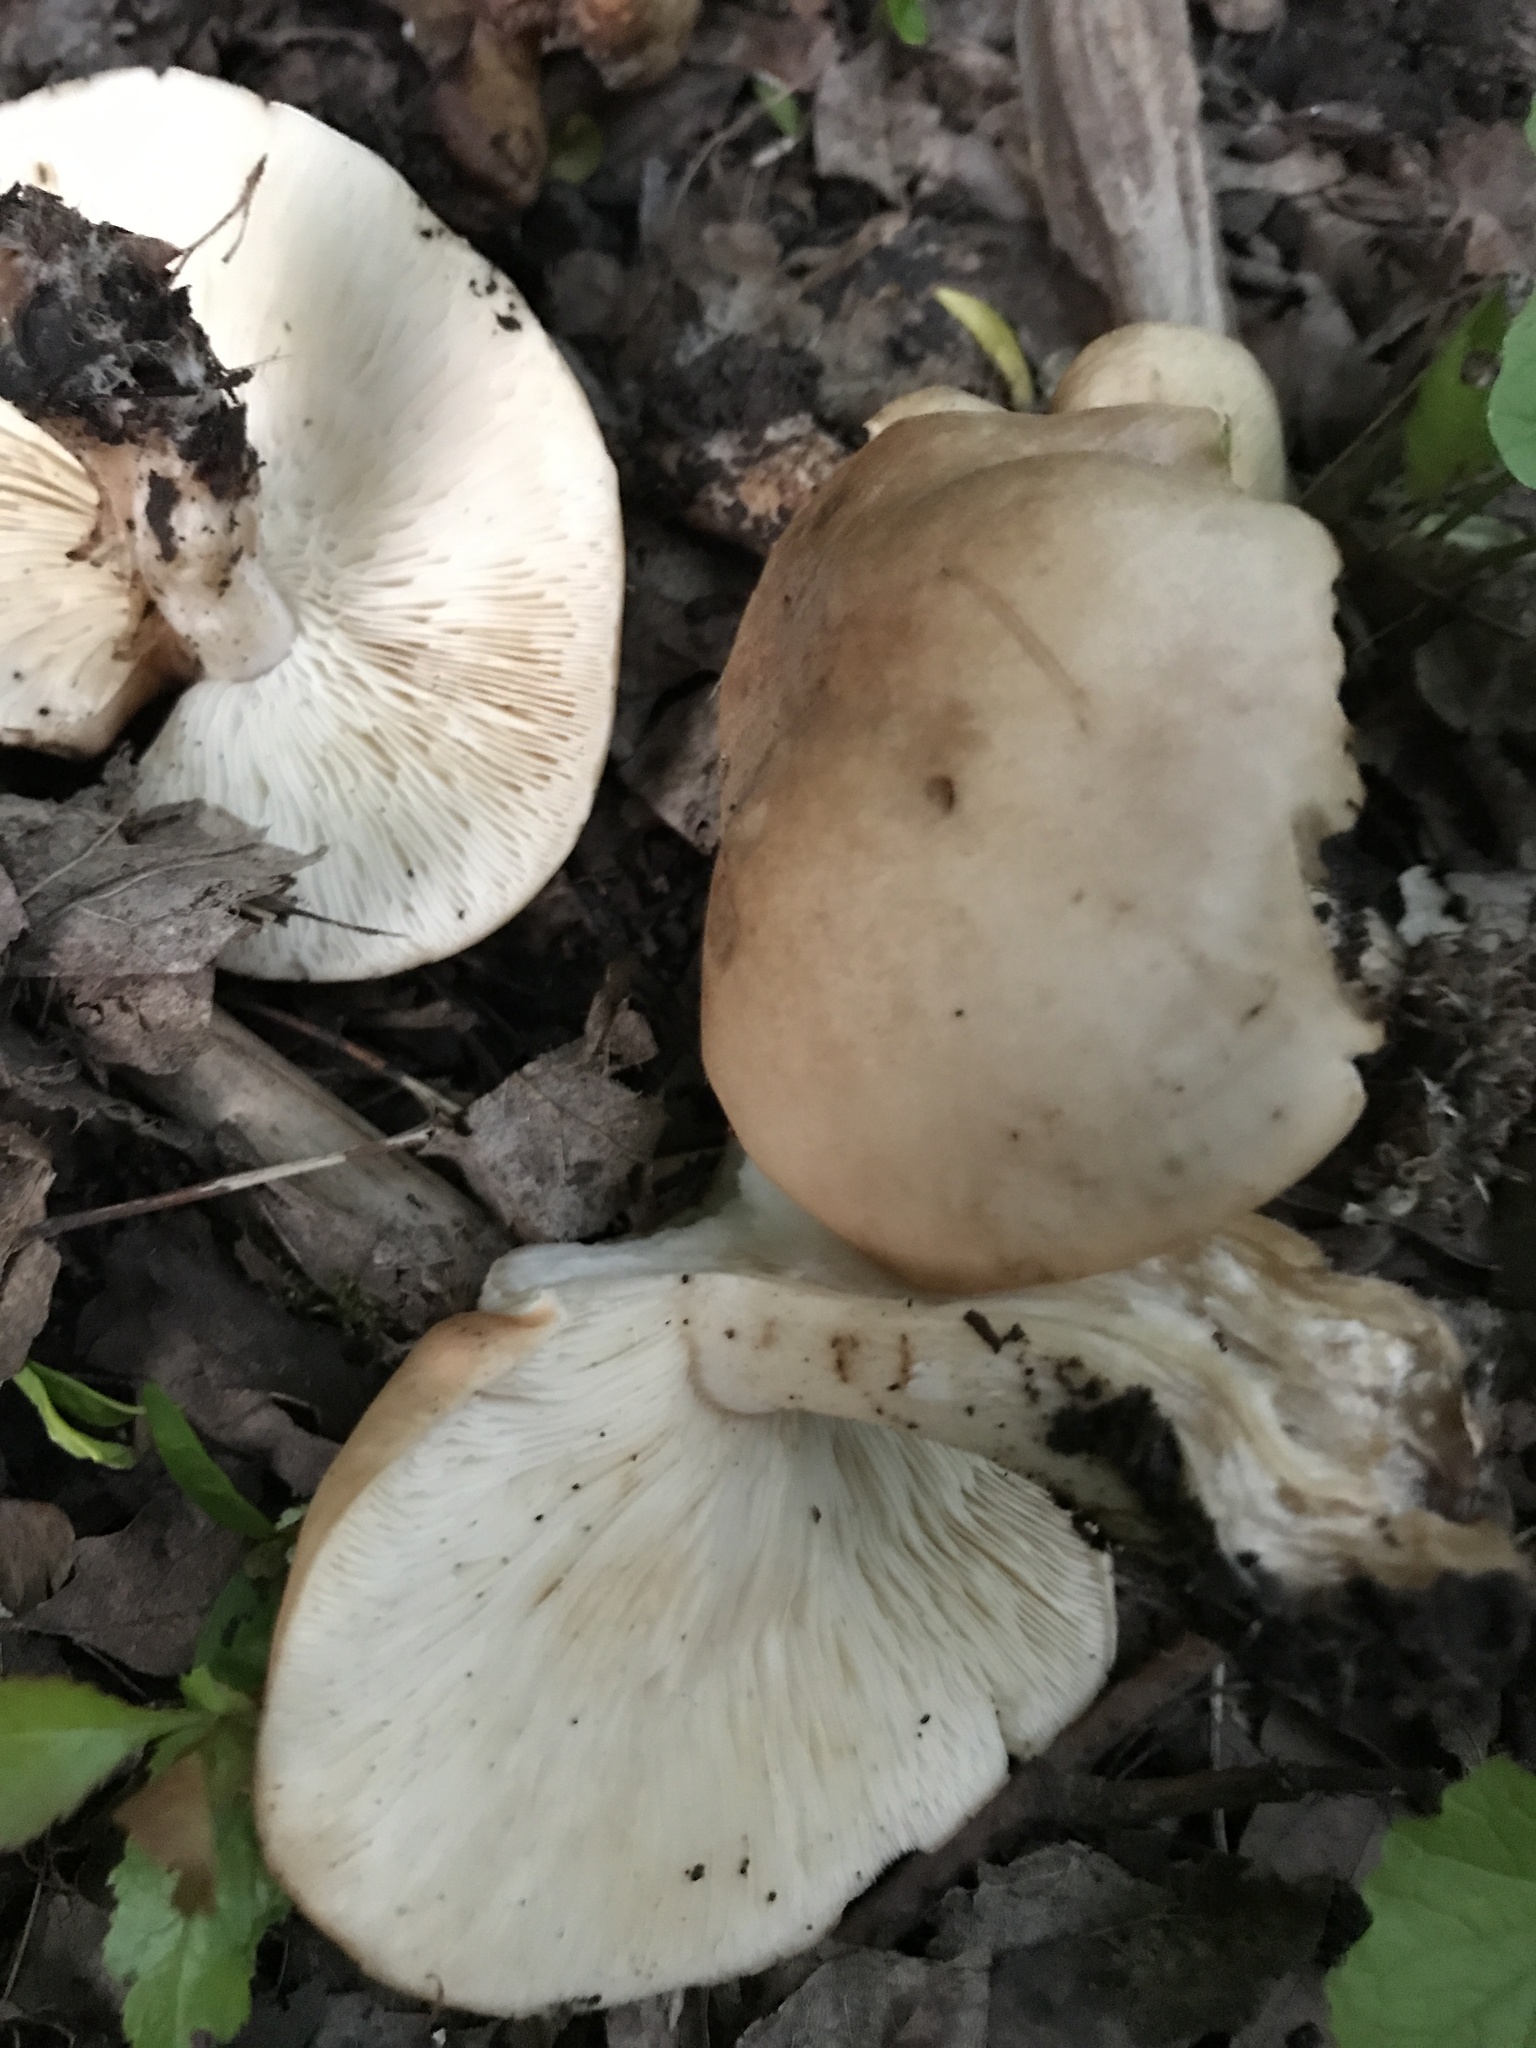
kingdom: Fungi
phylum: Basidiomycota
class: Agaricomycetes
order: Agaricales
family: Lyophyllaceae
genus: Calocybe
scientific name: Calocybe gambosa
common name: St. george's mushroom
